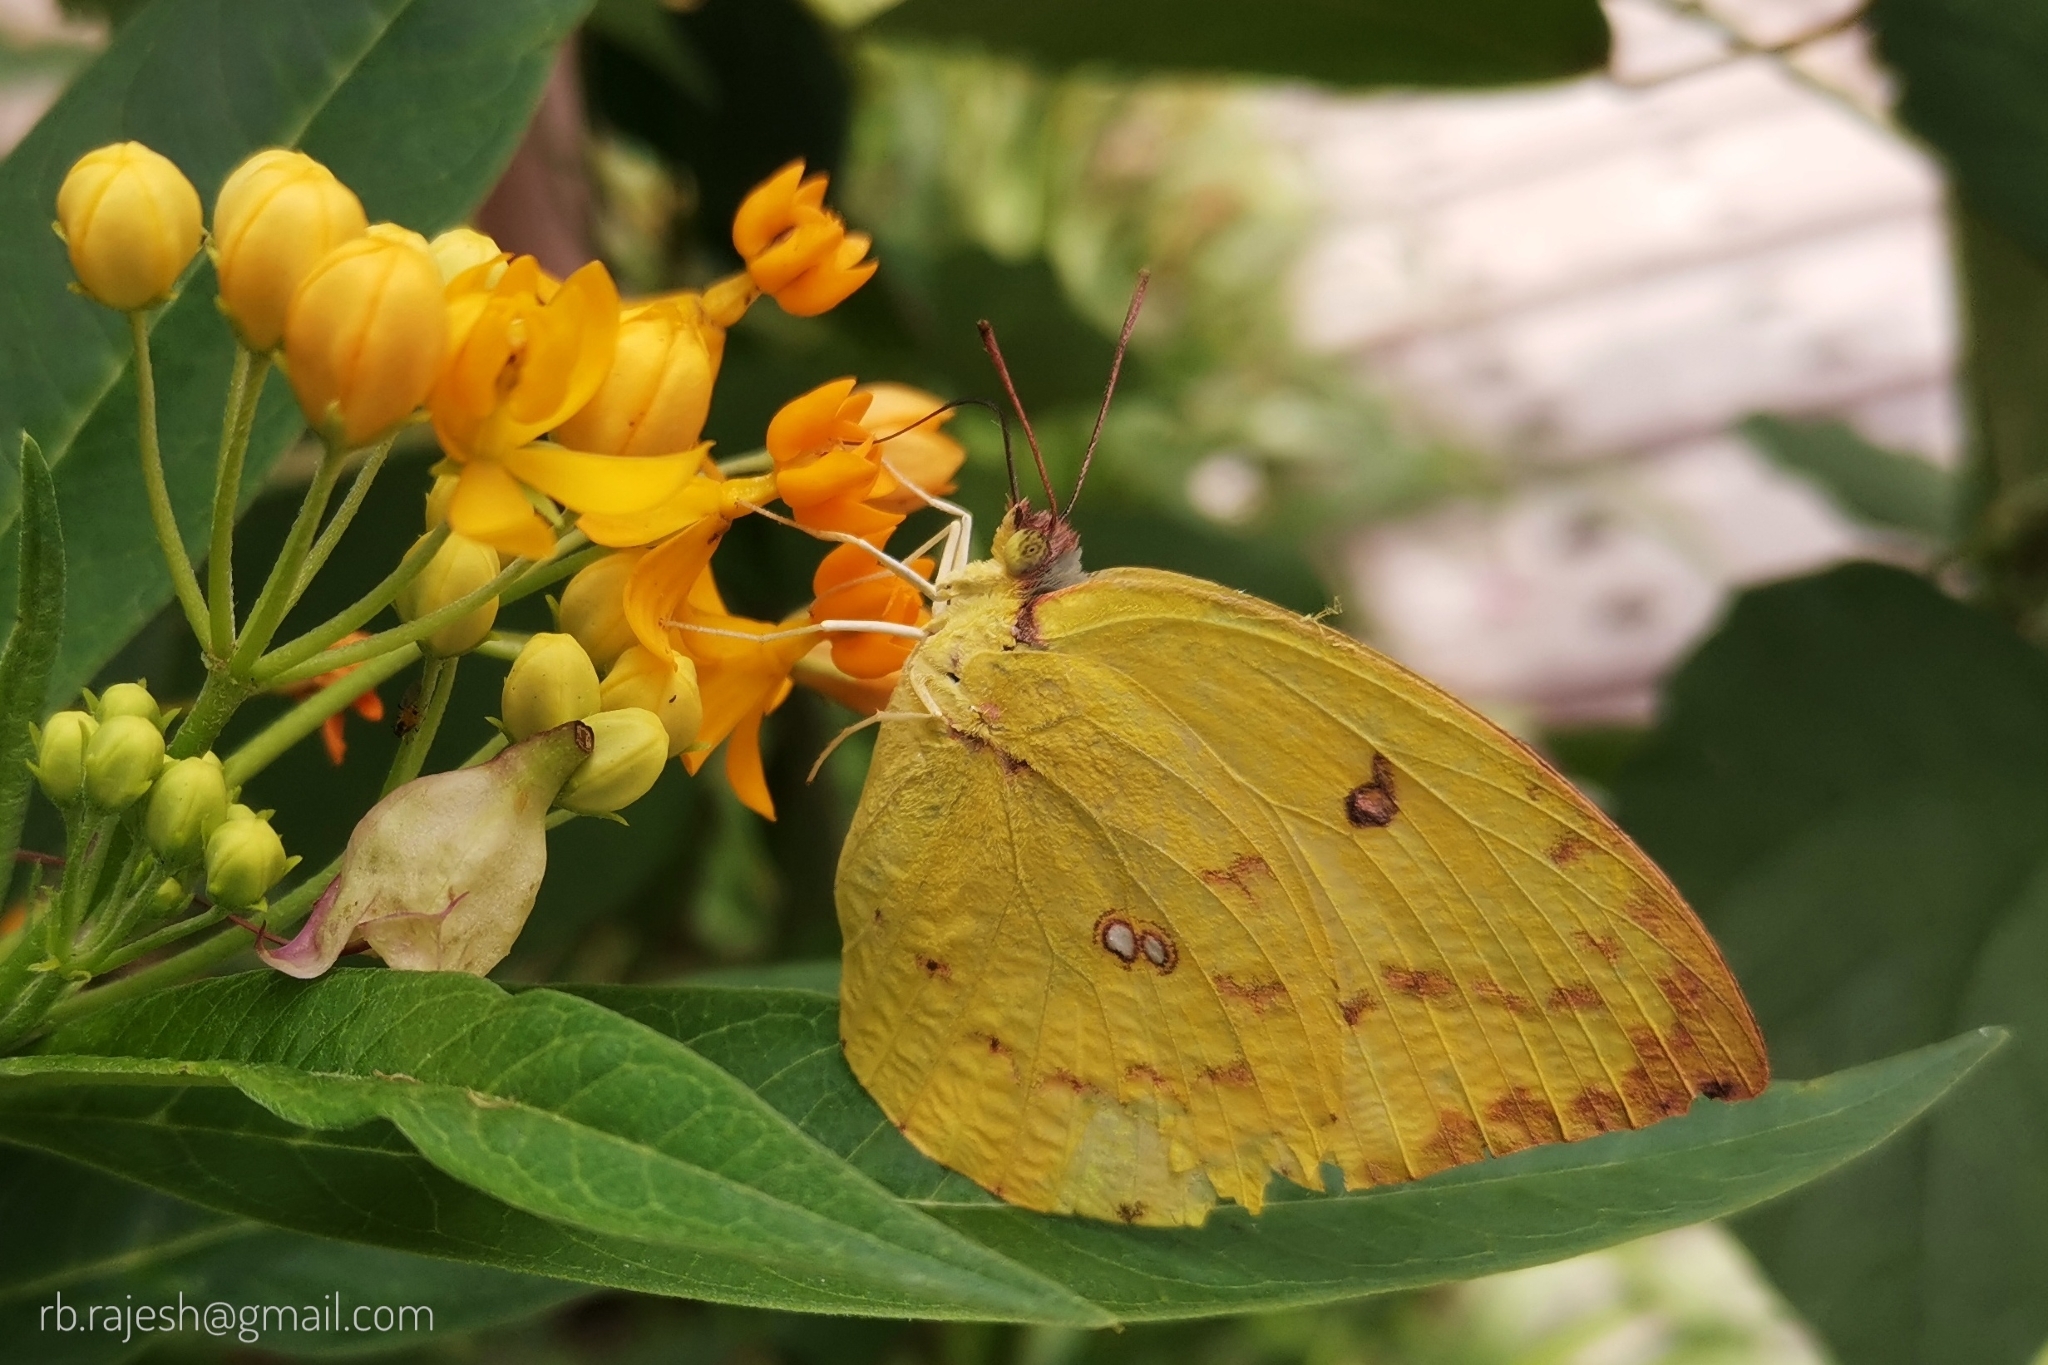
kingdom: Animalia
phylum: Arthropoda
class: Insecta
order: Lepidoptera
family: Pieridae
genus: Catopsilia
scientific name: Catopsilia pomona
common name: Common emigrant
